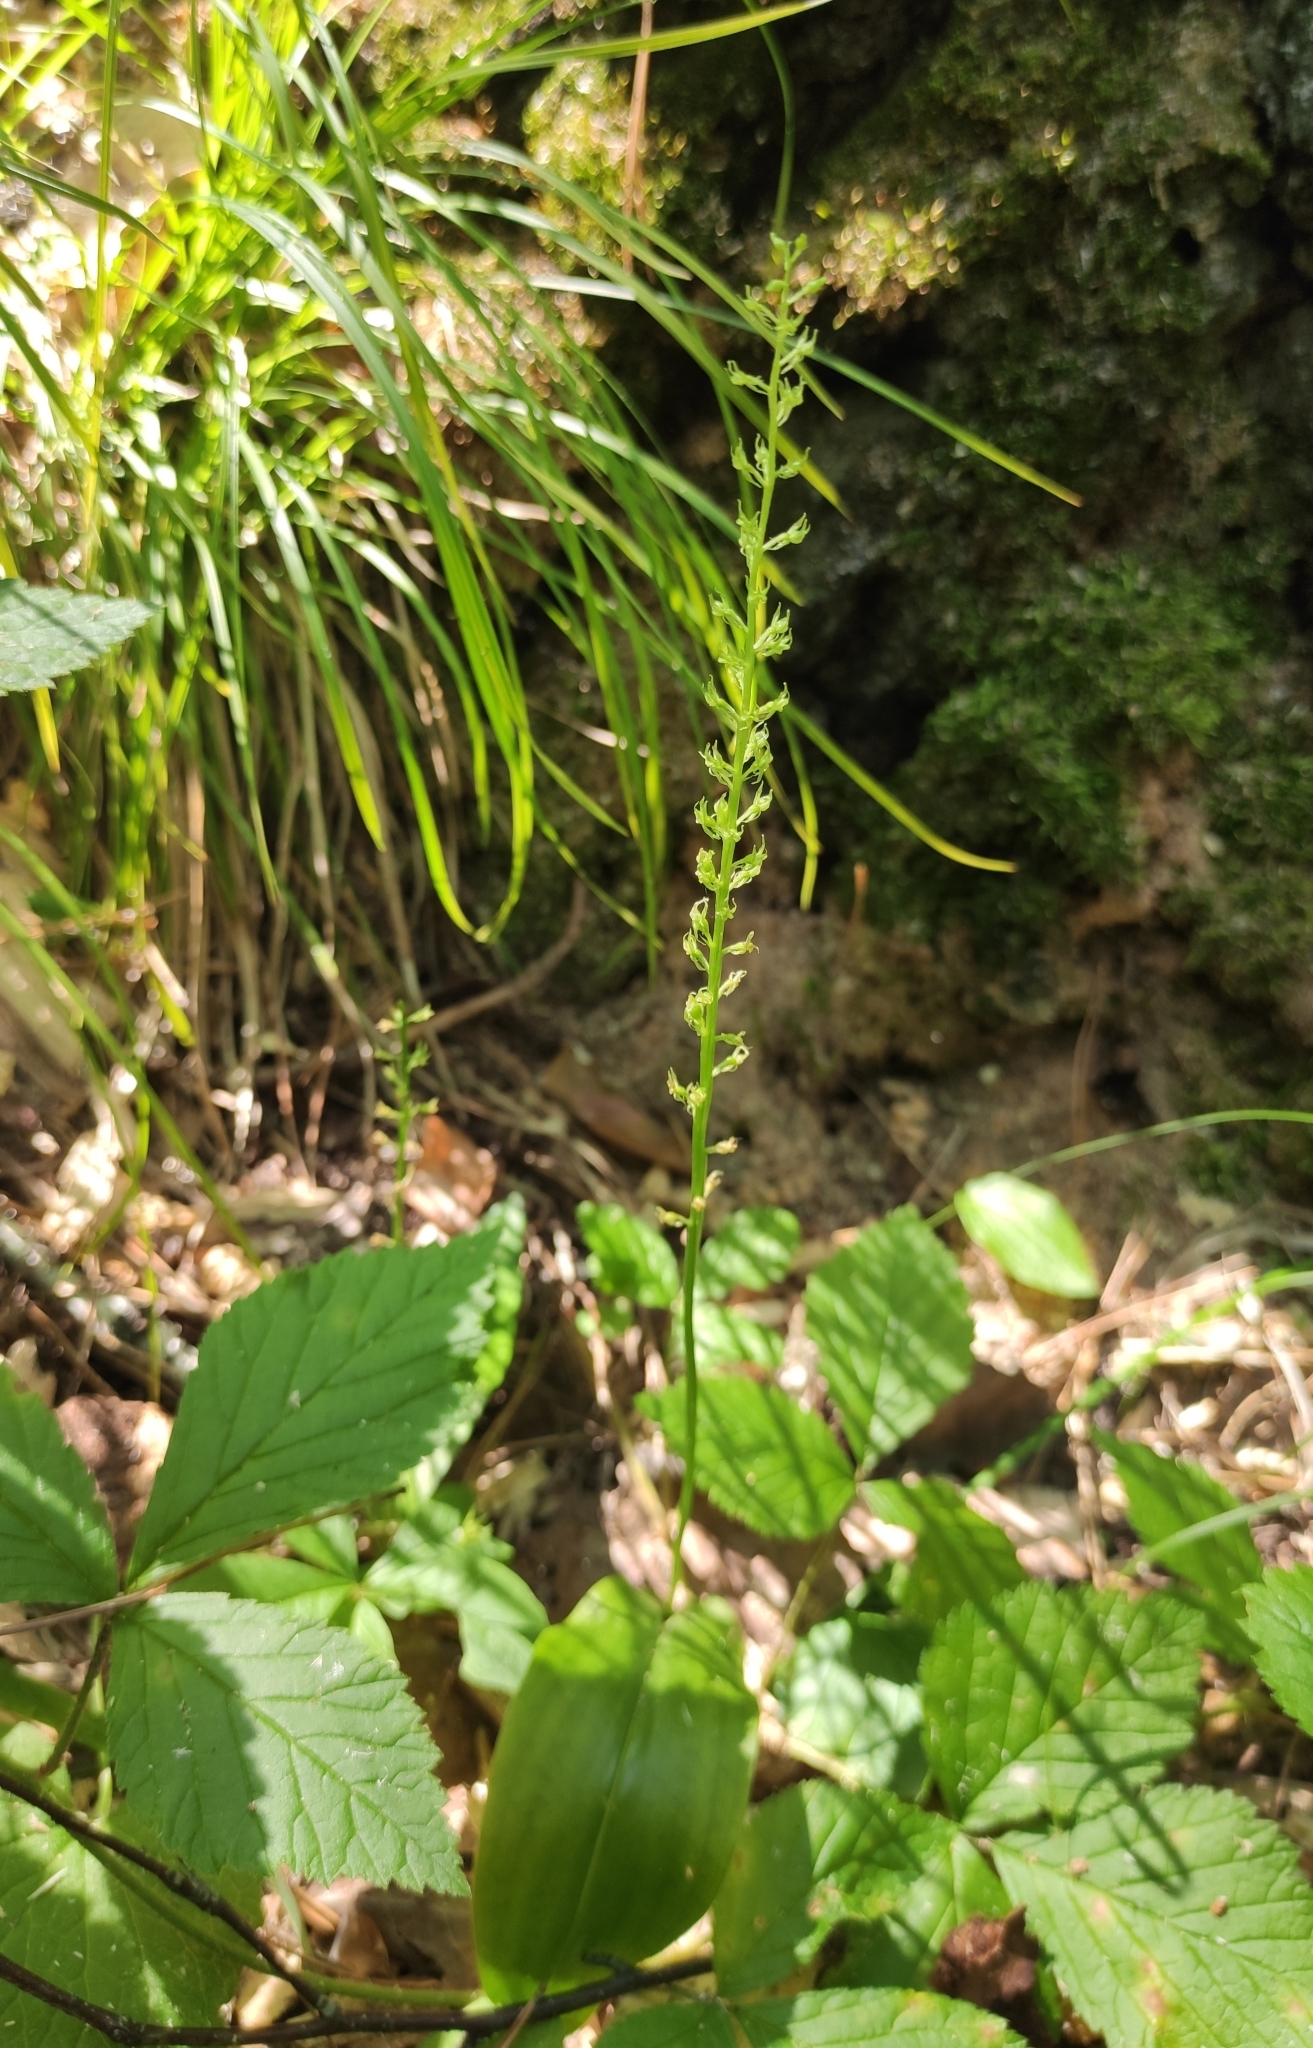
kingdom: Plantae
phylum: Tracheophyta
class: Liliopsida
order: Asparagales
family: Orchidaceae
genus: Malaxis
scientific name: Malaxis monophyllos
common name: White adder's-mouth
